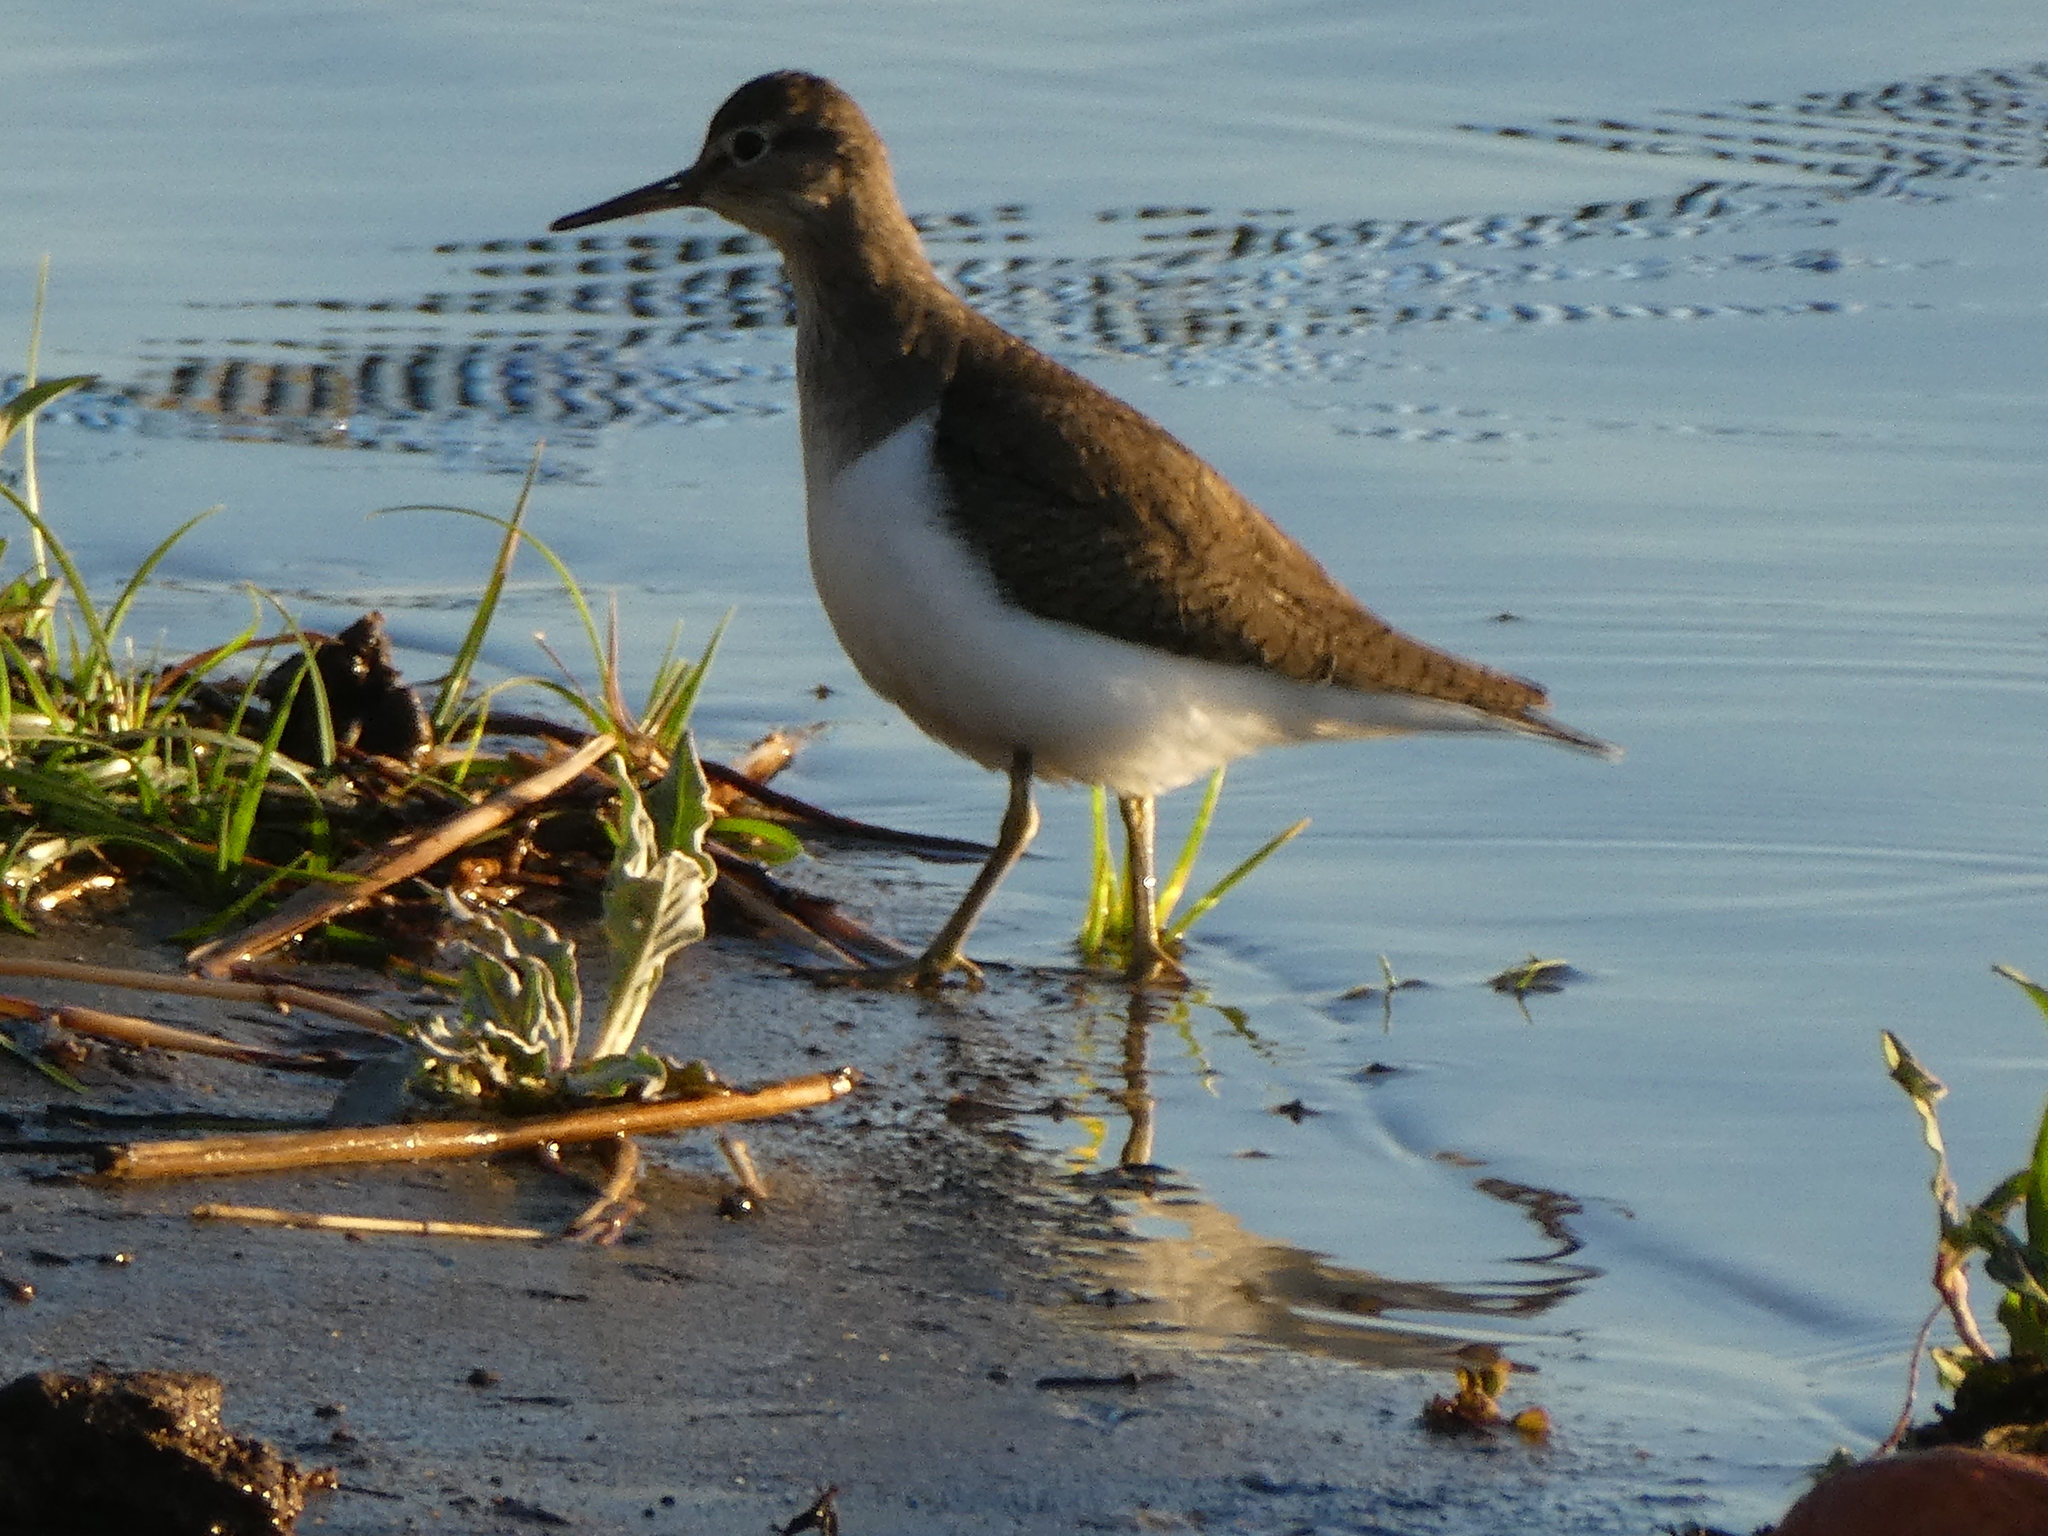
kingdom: Animalia
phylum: Chordata
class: Aves
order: Charadriiformes
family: Scolopacidae
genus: Actitis
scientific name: Actitis hypoleucos
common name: Common sandpiper
